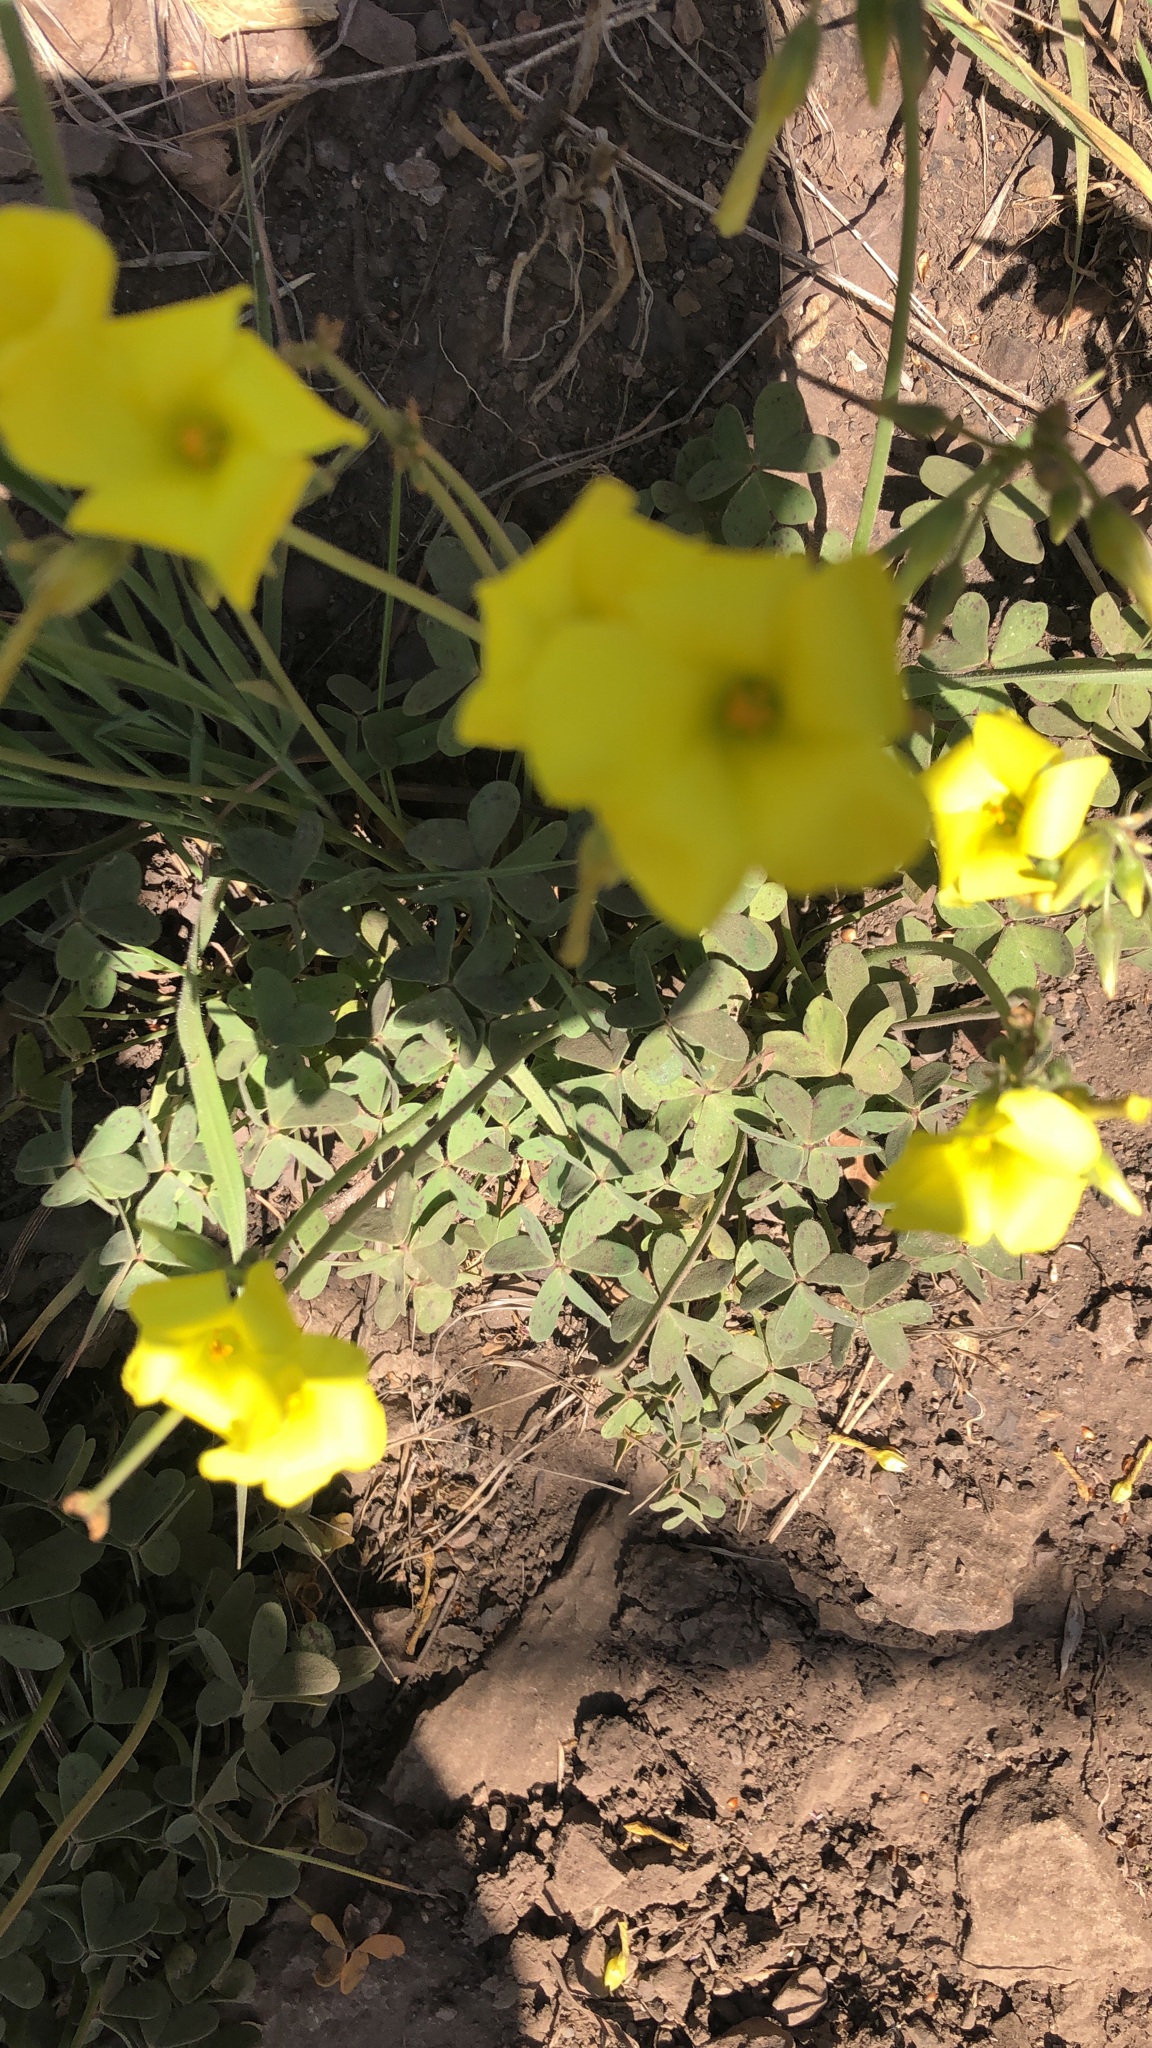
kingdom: Plantae
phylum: Tracheophyta
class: Magnoliopsida
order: Oxalidales
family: Oxalidaceae
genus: Oxalis
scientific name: Oxalis pes-caprae
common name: Bermuda-buttercup
